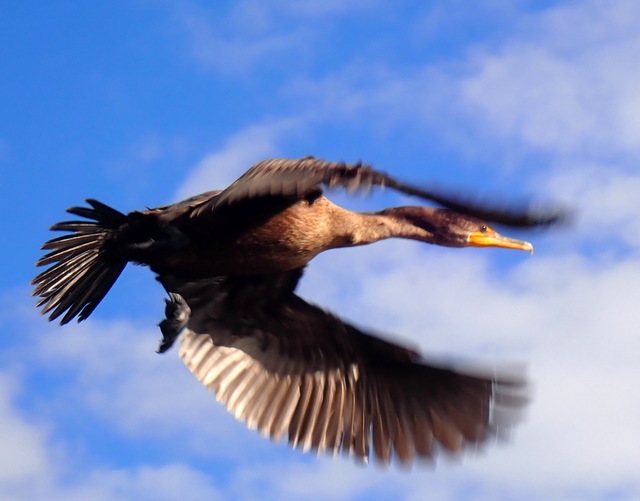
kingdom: Animalia
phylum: Chordata
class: Aves
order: Suliformes
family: Phalacrocoracidae
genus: Phalacrocorax
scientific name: Phalacrocorax auritus
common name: Double-crested cormorant
